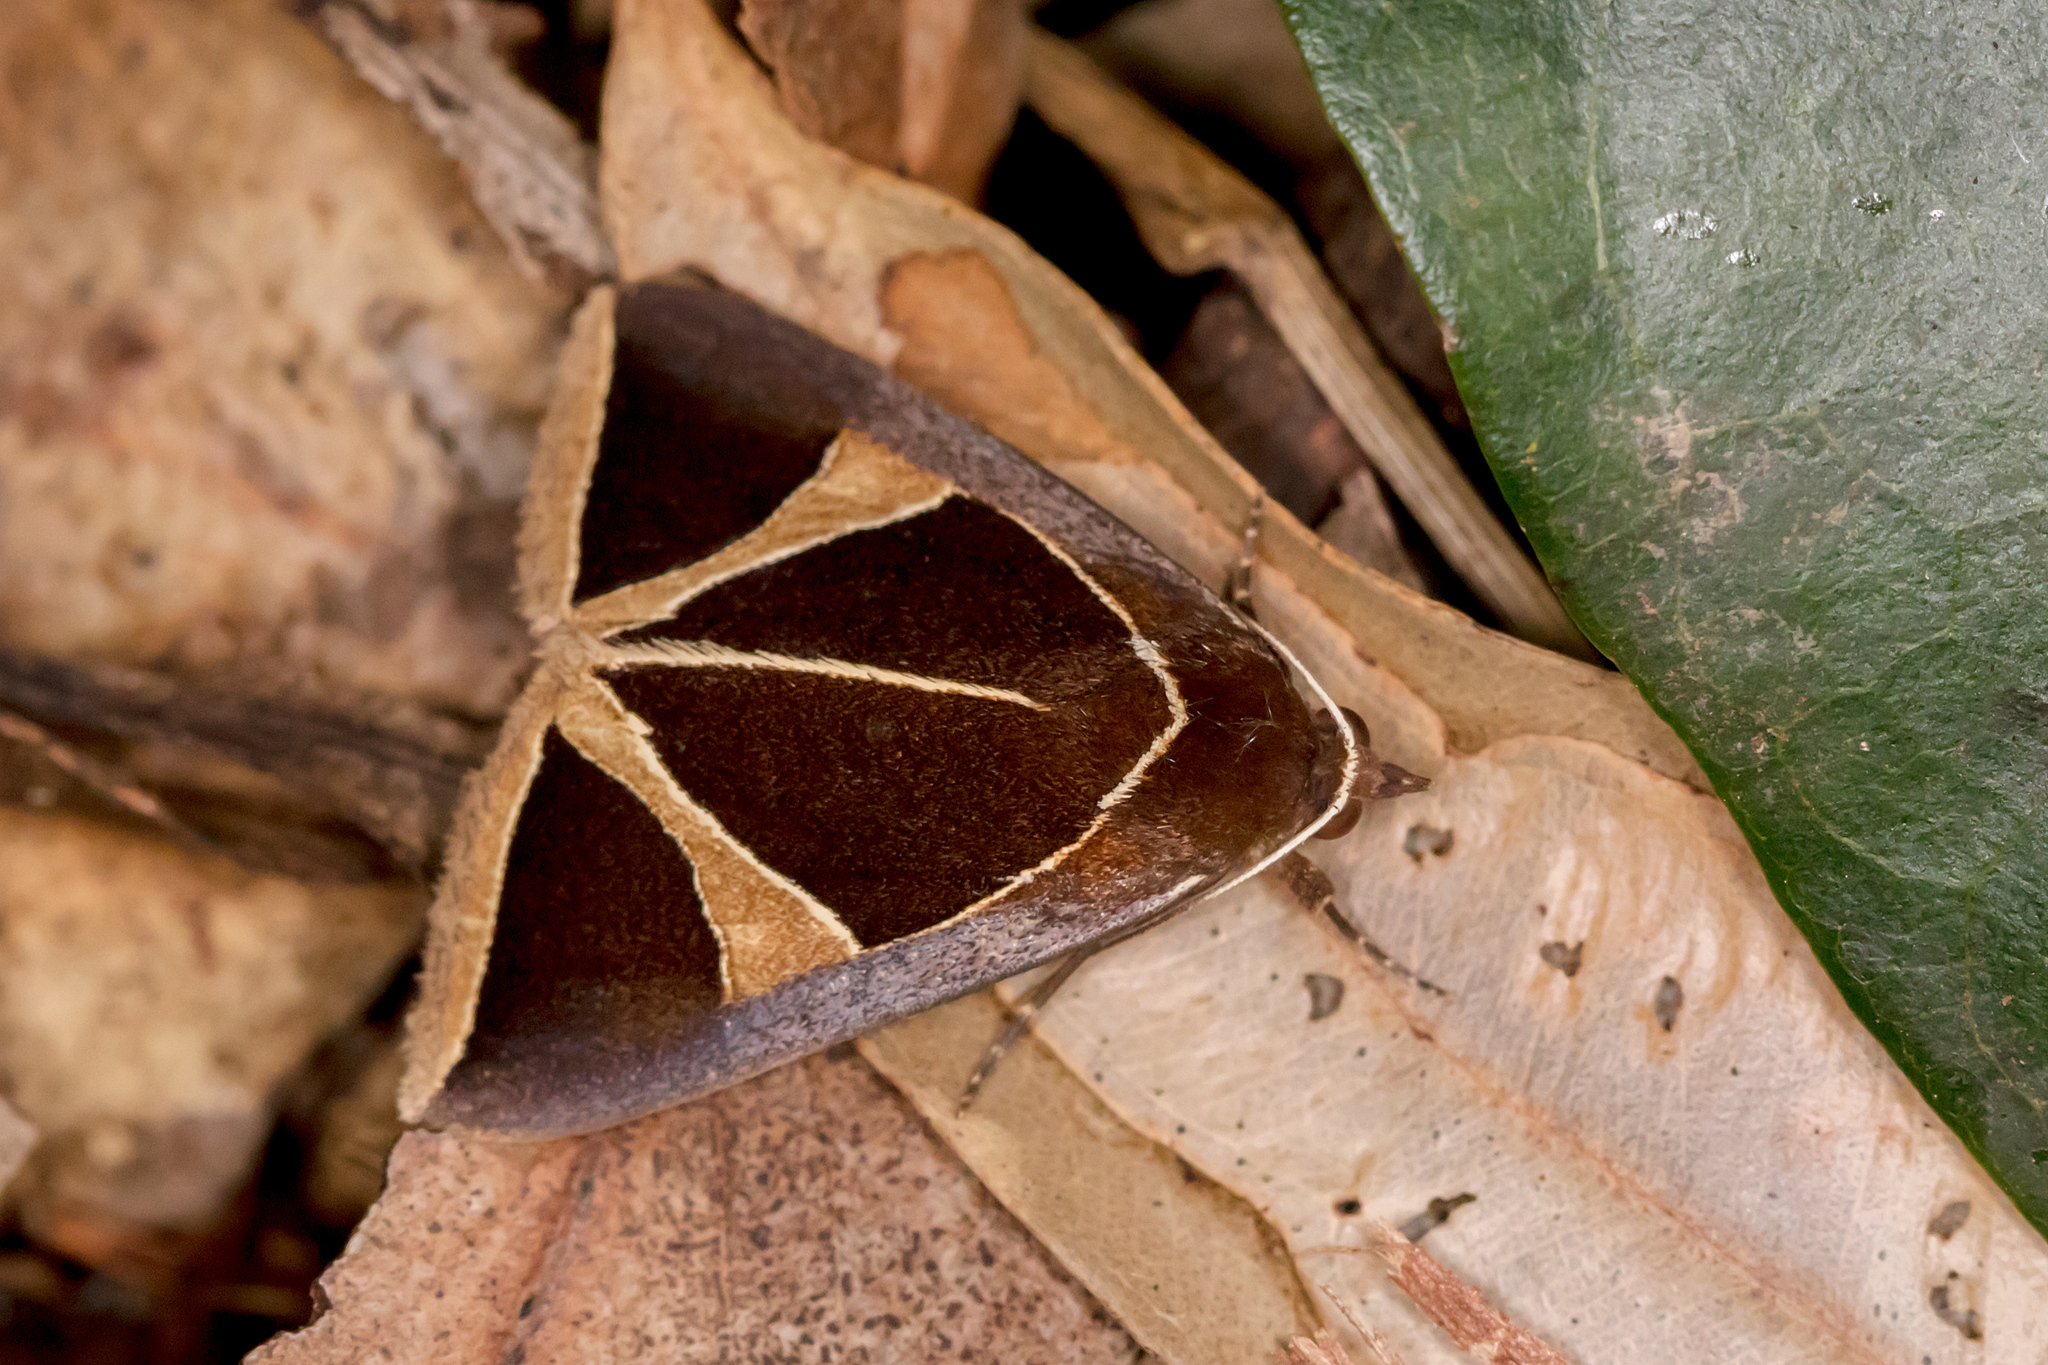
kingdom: Animalia
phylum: Arthropoda
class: Insecta
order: Lepidoptera
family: Erebidae
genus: Agamana
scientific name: Agamana conjungens
